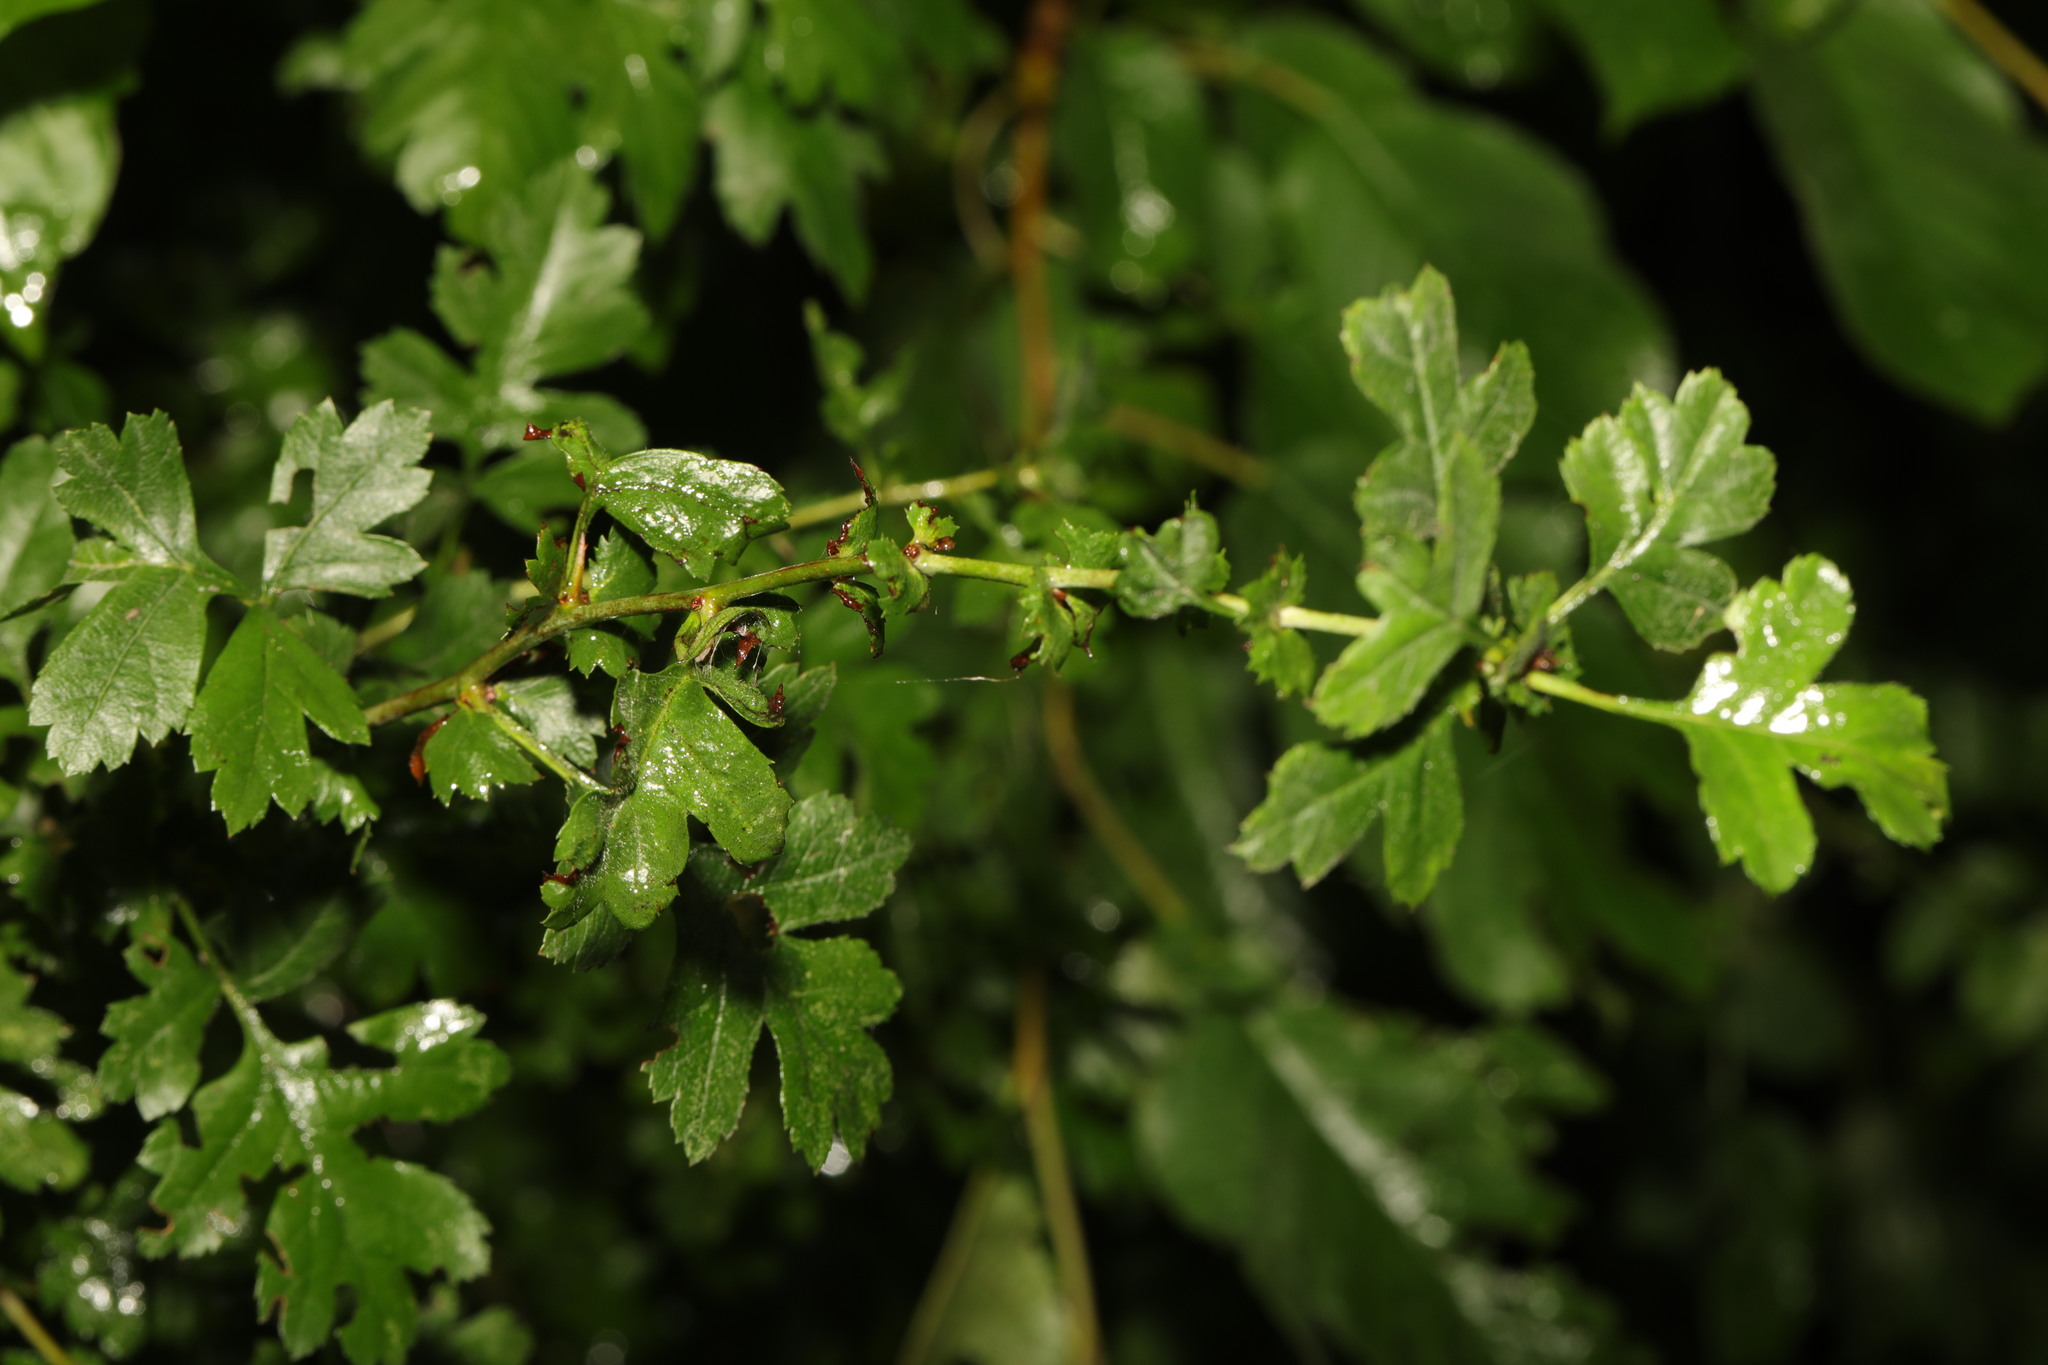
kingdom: Plantae
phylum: Tracheophyta
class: Magnoliopsida
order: Rosales
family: Rosaceae
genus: Crataegus
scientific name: Crataegus monogyna
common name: Hawthorn
